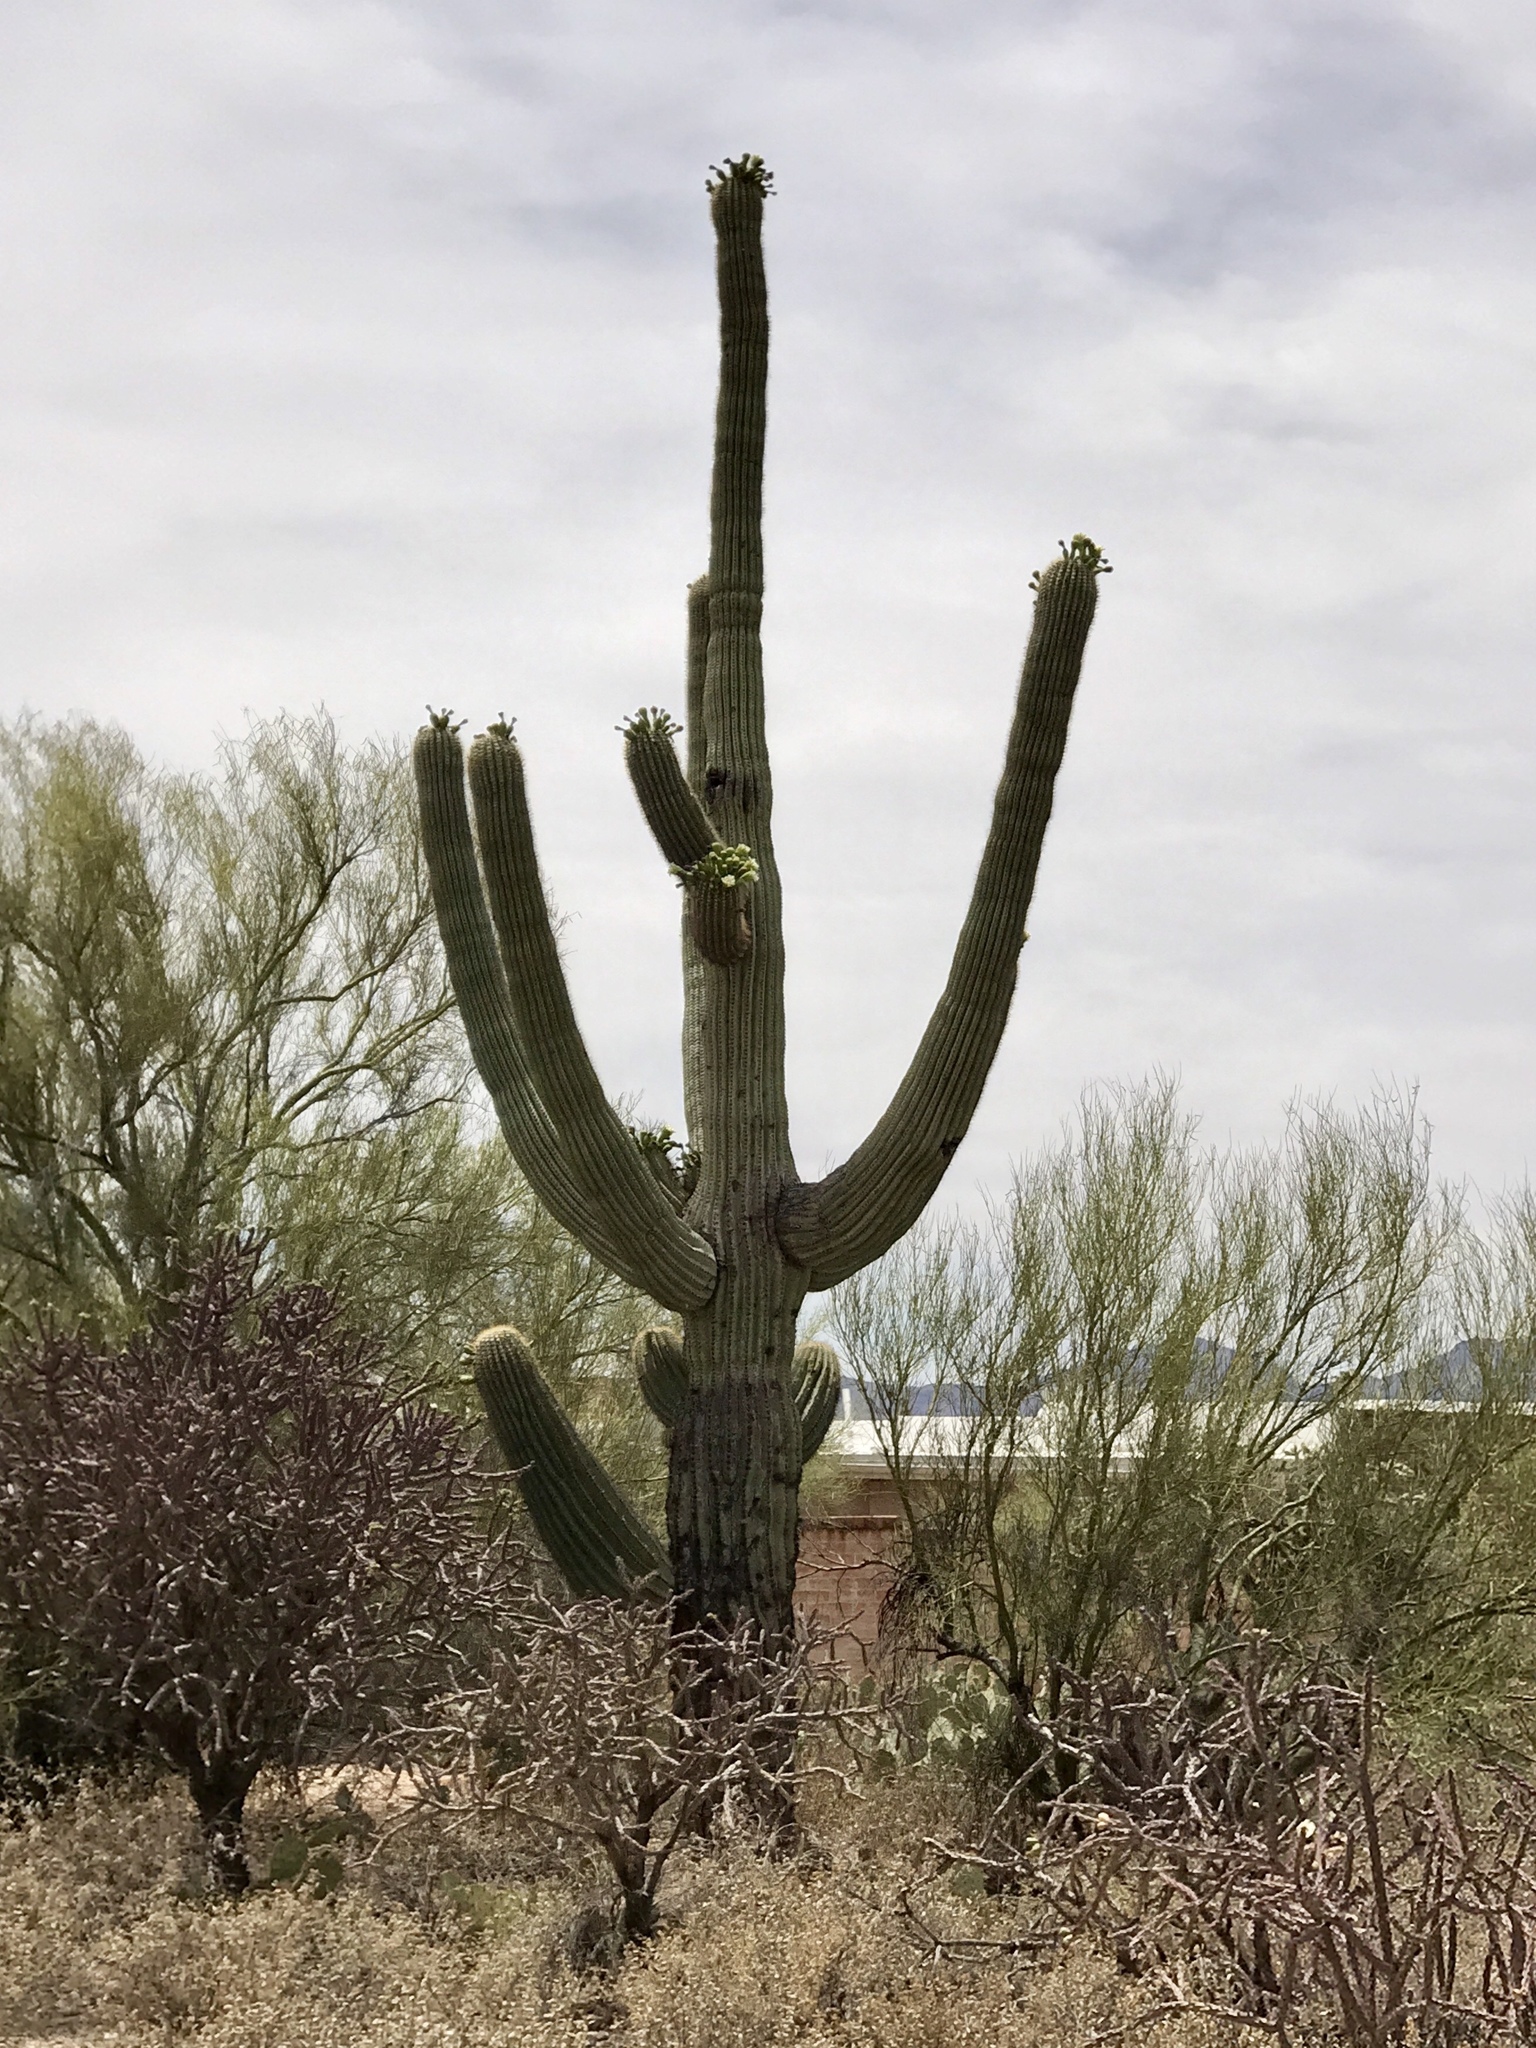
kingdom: Plantae
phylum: Tracheophyta
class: Magnoliopsida
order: Caryophyllales
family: Cactaceae
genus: Carnegiea
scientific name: Carnegiea gigantea
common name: Saguaro
